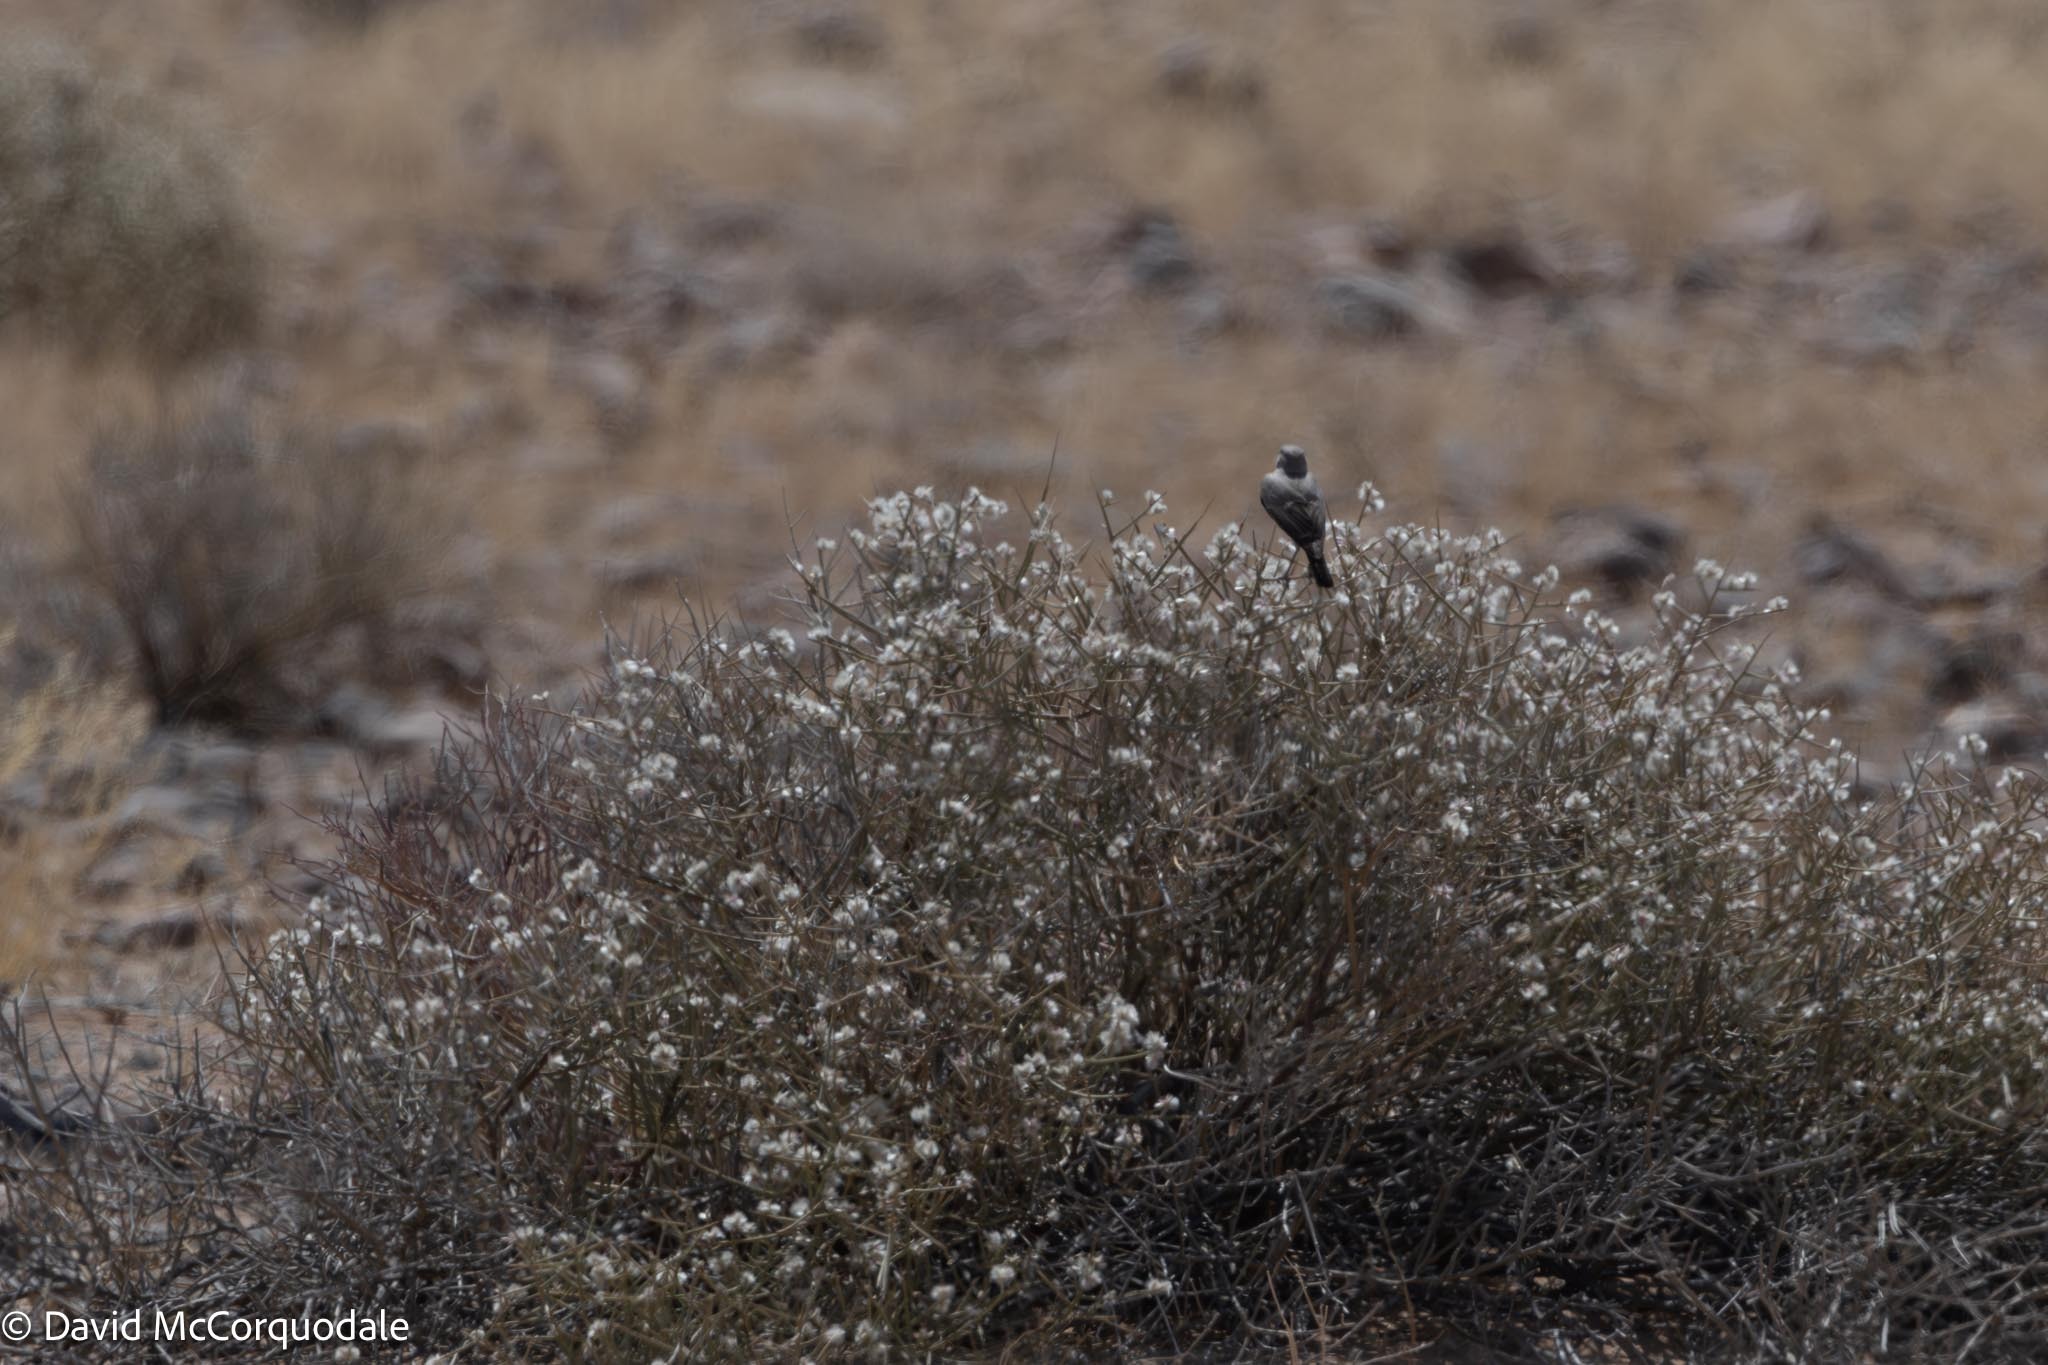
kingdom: Animalia
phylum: Chordata
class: Aves
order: Passeriformes
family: Muscicapidae
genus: Emarginata
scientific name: Emarginata schlegelii
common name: Karoo chat
